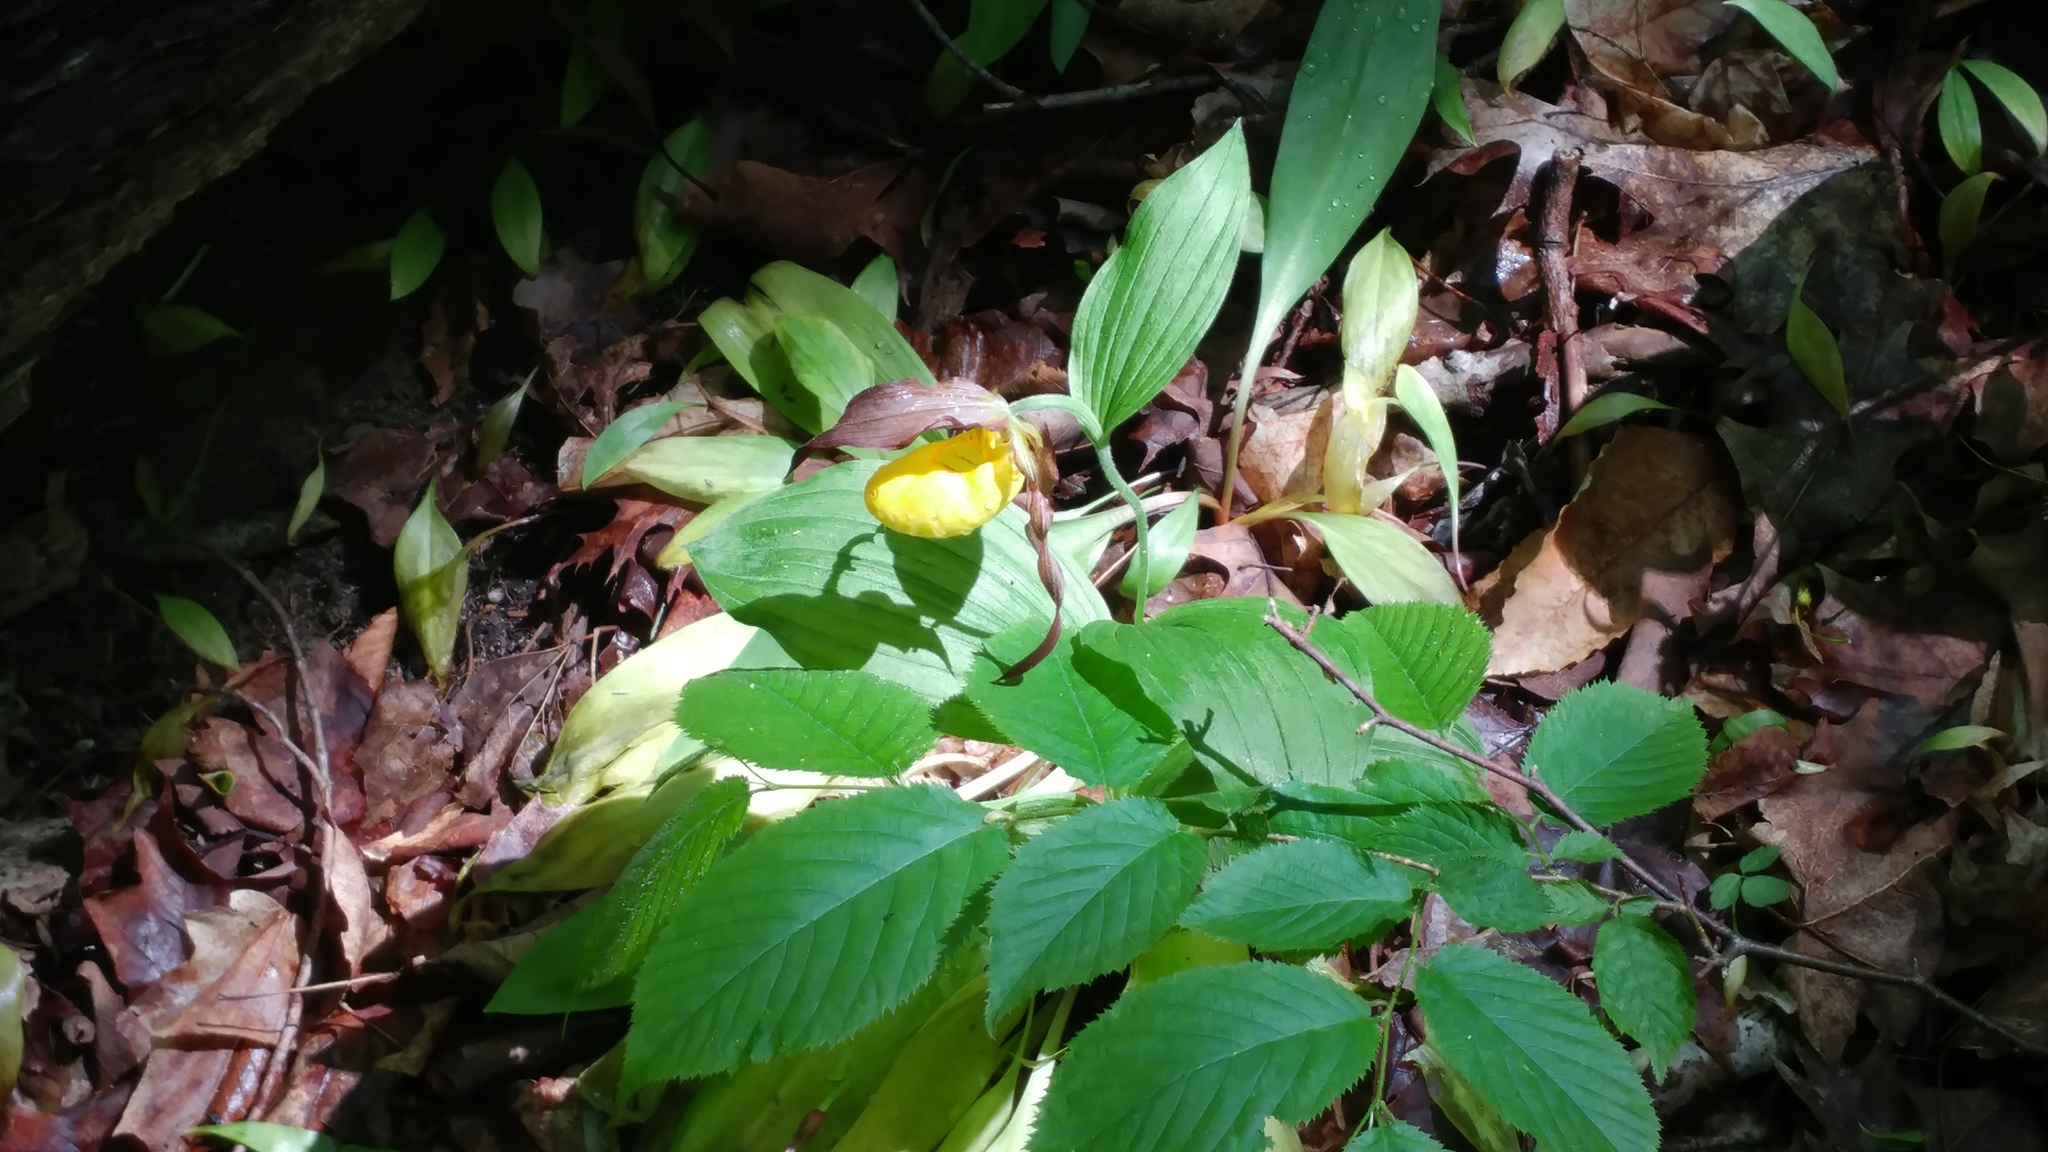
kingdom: Plantae
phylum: Tracheophyta
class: Liliopsida
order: Asparagales
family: Orchidaceae
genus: Cypripedium
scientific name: Cypripedium parviflorum
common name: American yellow lady's-slipper
